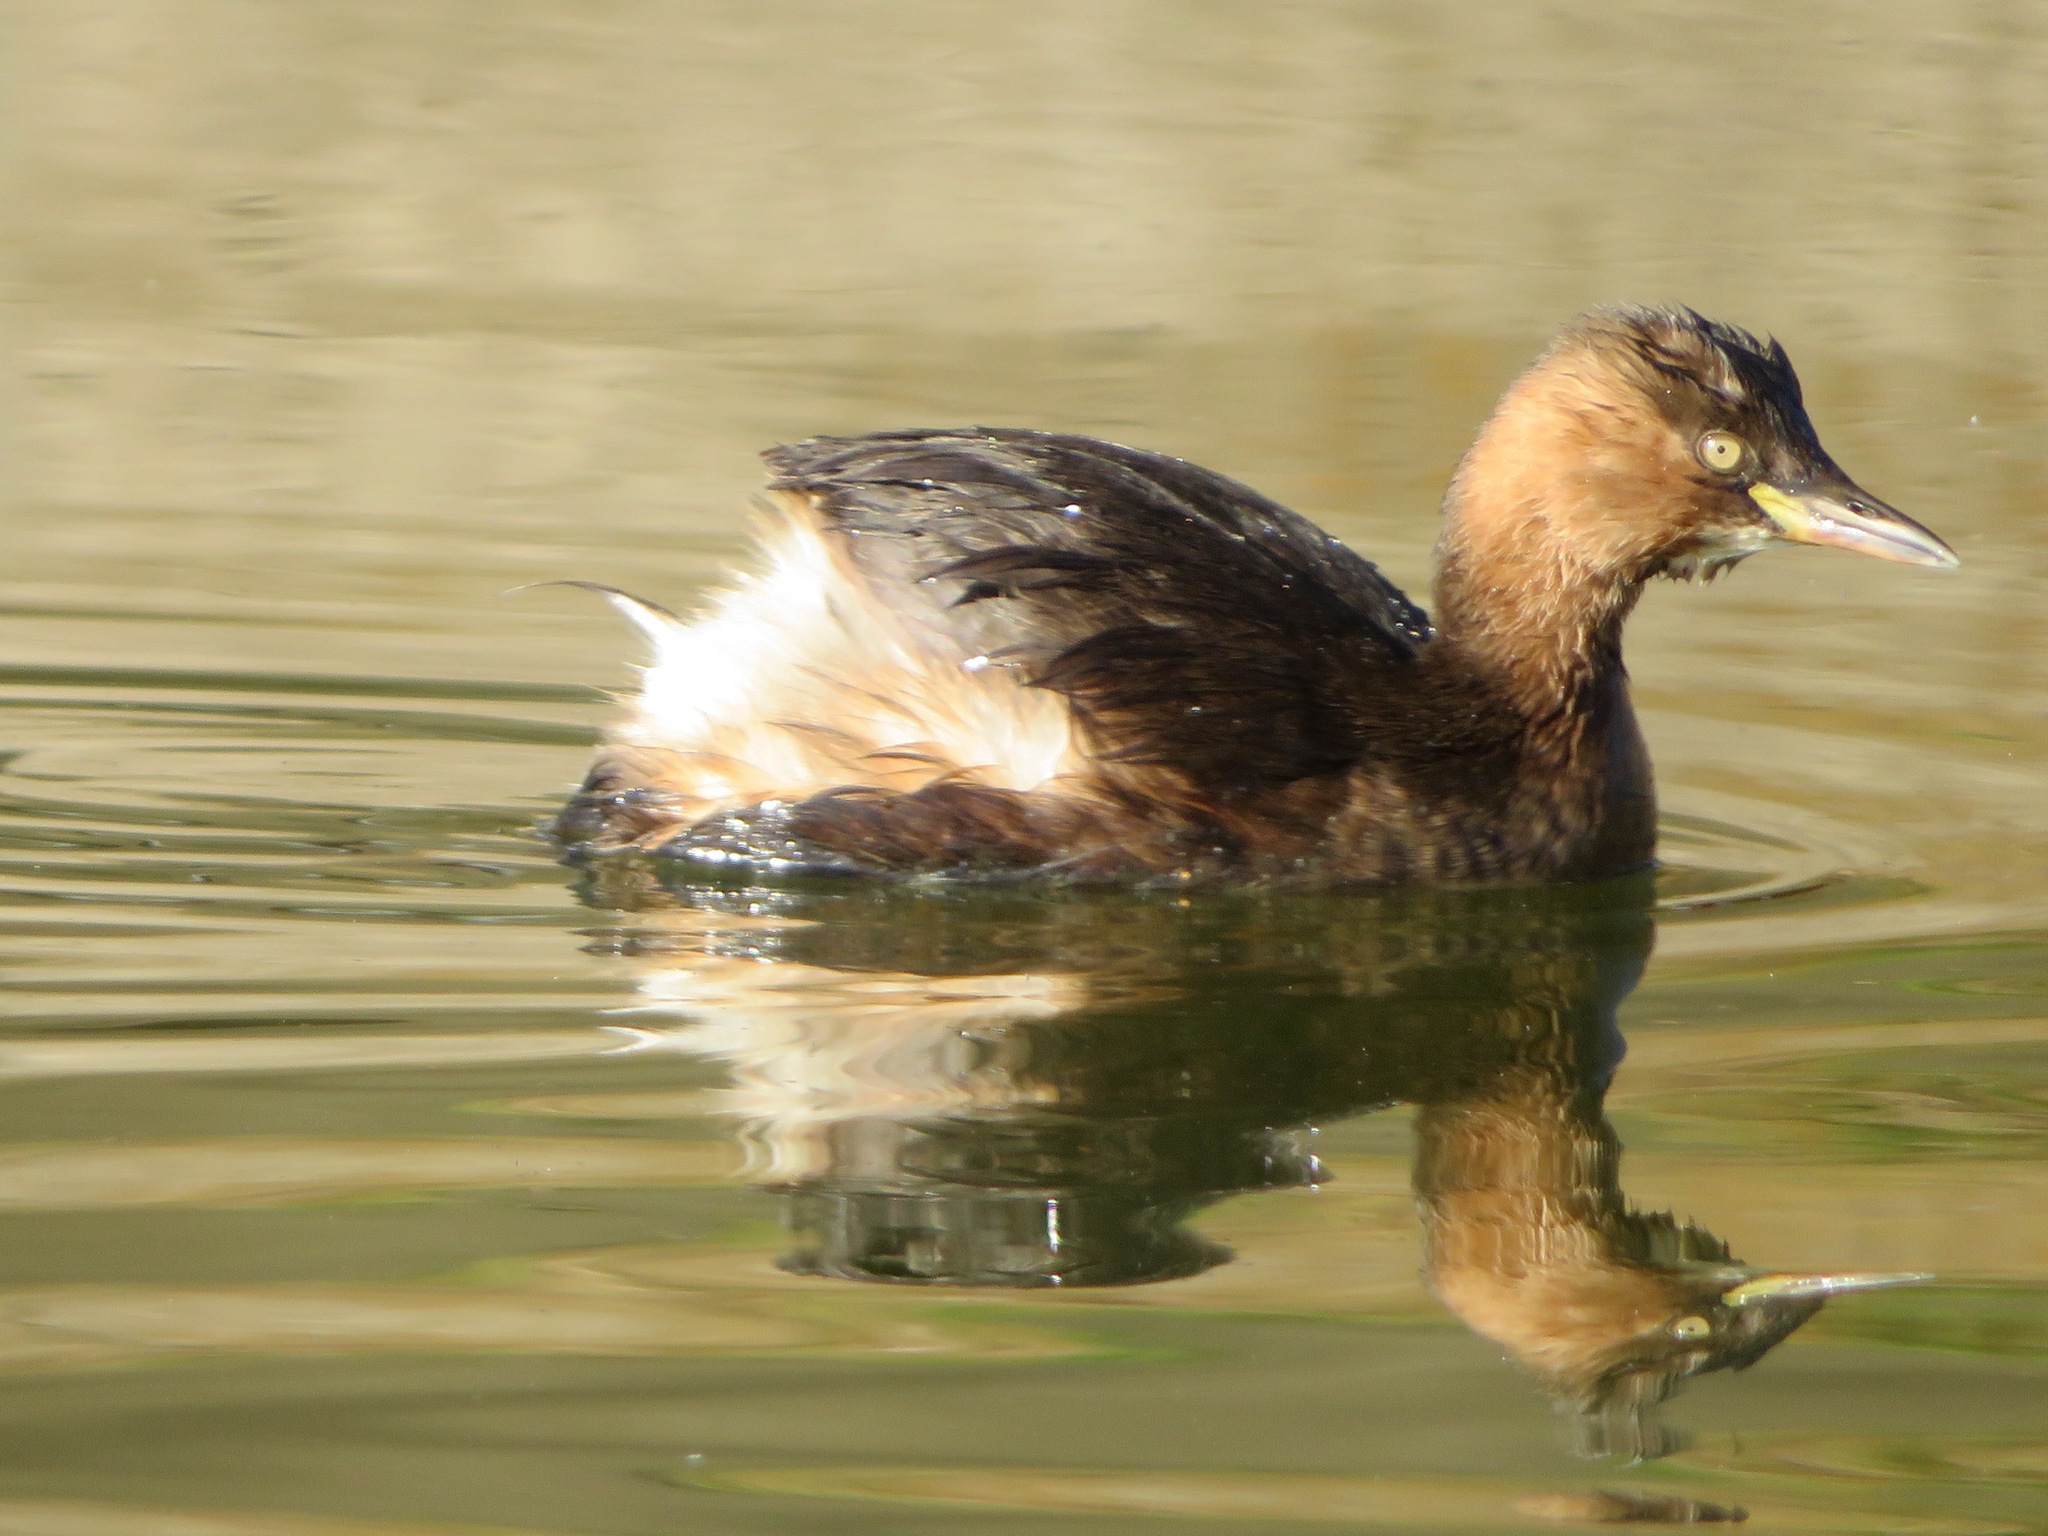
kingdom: Animalia
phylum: Chordata
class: Aves
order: Podicipediformes
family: Podicipedidae
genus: Tachybaptus
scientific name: Tachybaptus ruficollis
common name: Little grebe
